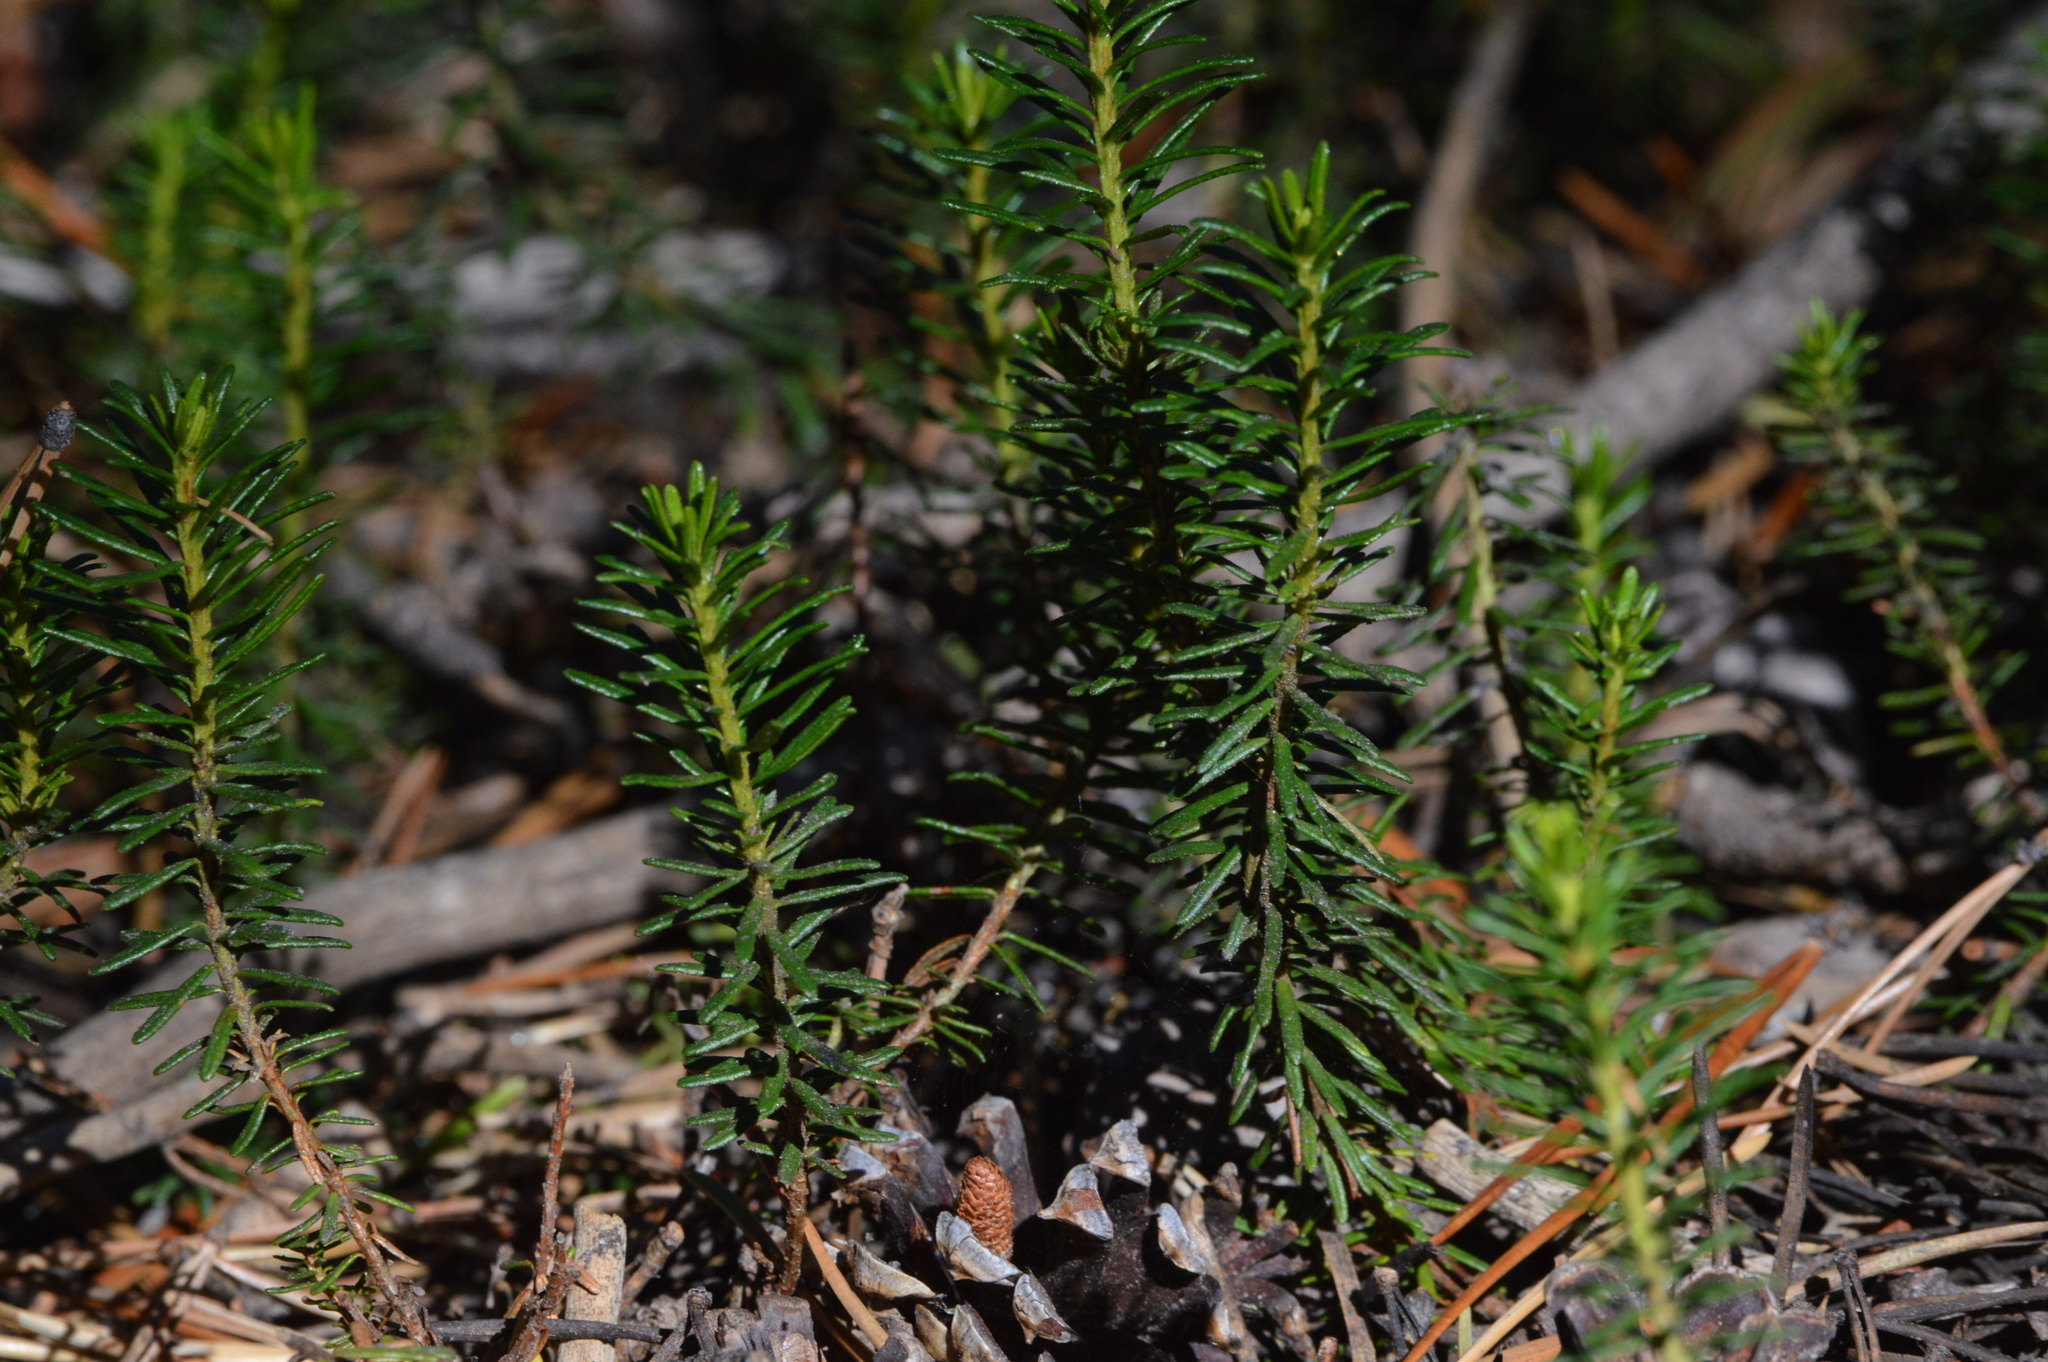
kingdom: Plantae
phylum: Tracheophyta
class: Magnoliopsida
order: Ericales
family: Ericaceae
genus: Phyllodoce
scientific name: Phyllodoce breweri
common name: Brewer's mountain-heather
